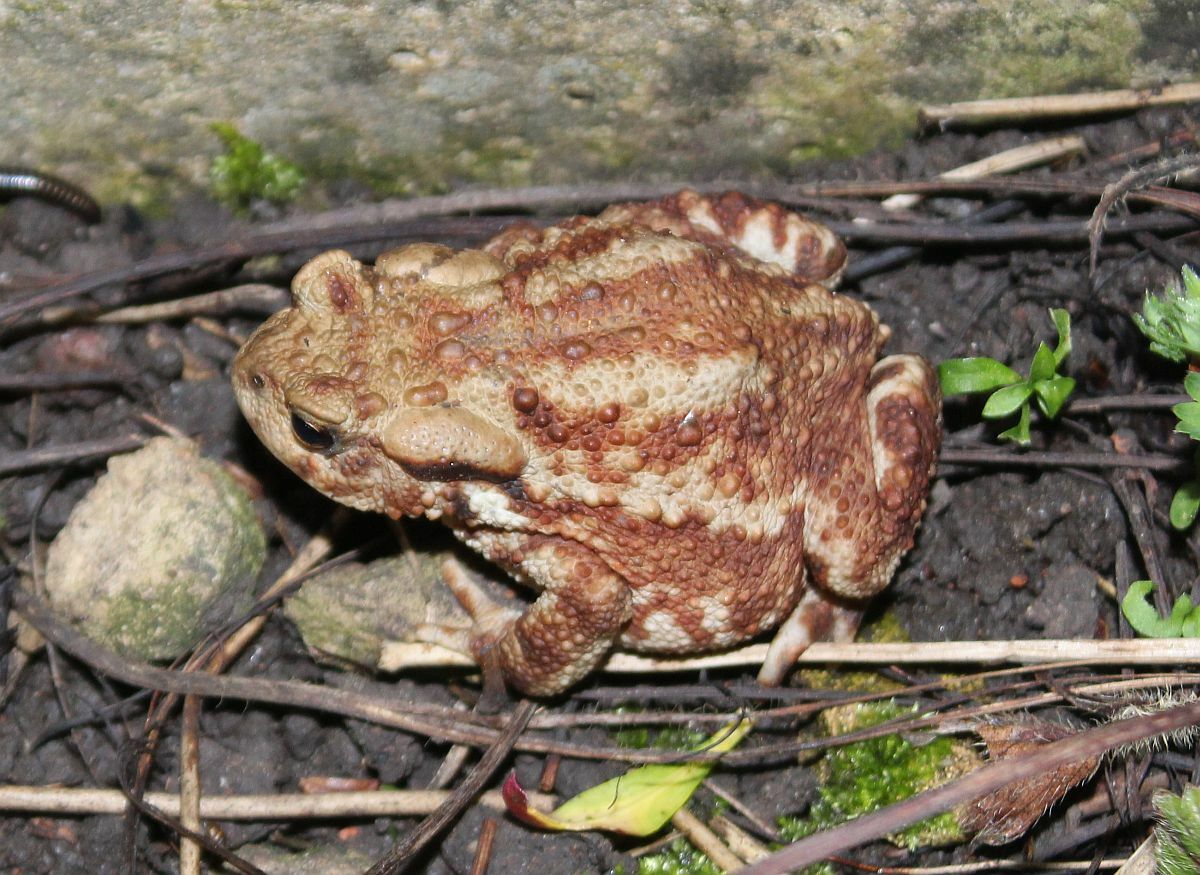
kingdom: Animalia
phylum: Chordata
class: Amphibia
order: Anura
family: Bufonidae
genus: Bufo
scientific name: Bufo bufo
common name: Common toad
